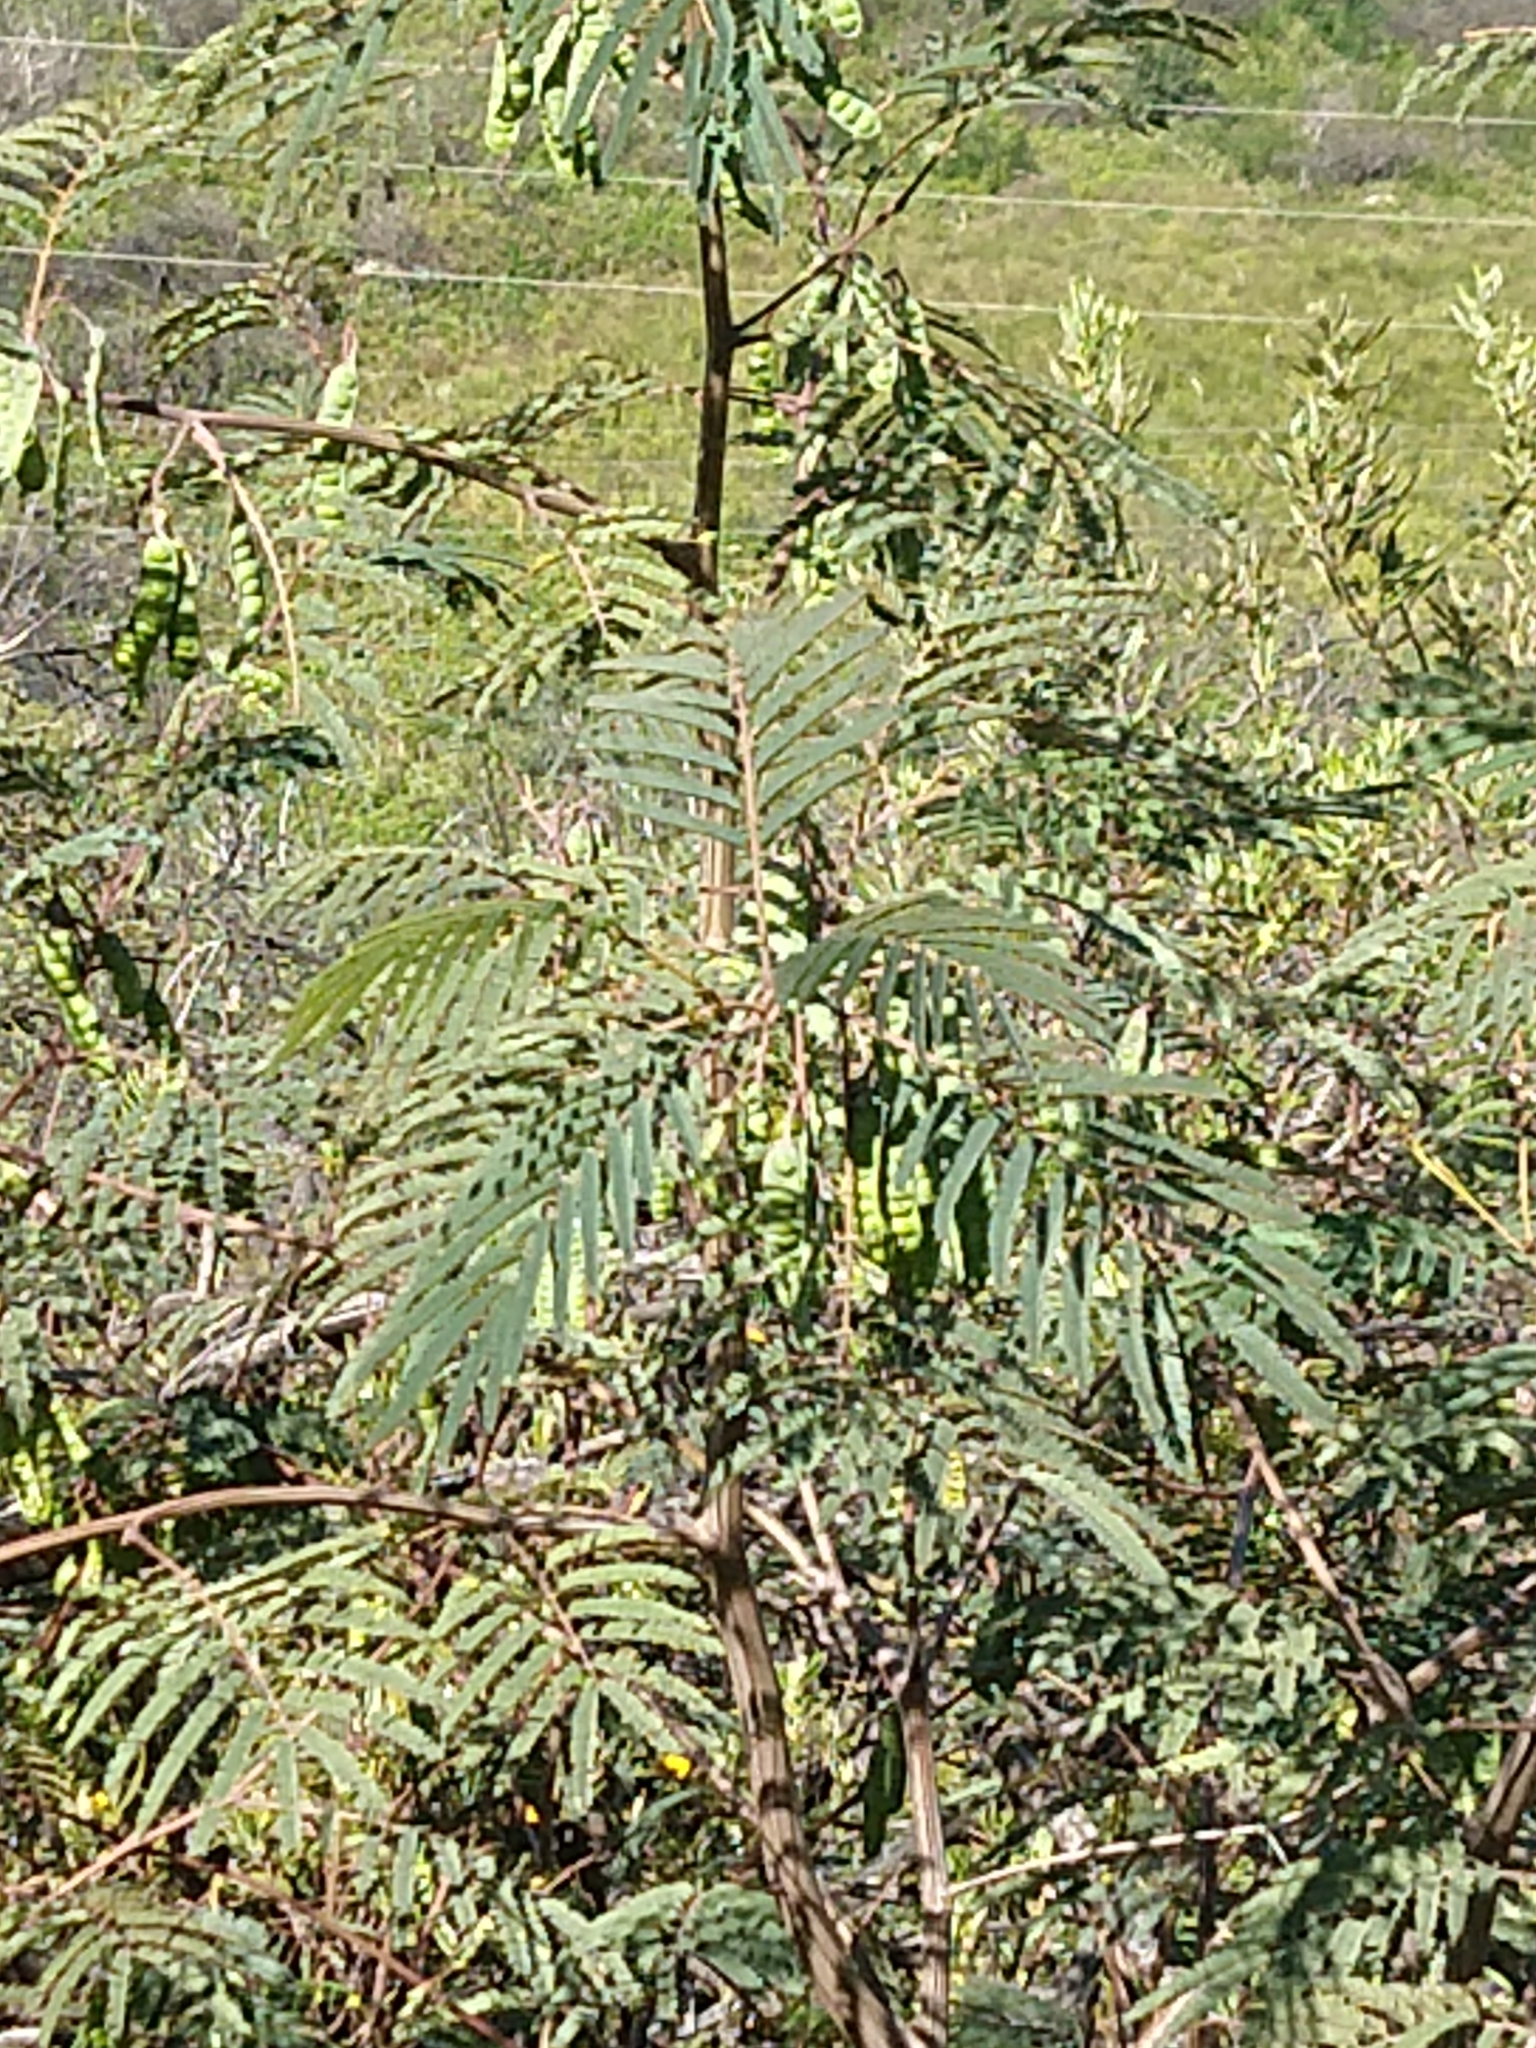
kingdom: Plantae
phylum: Tracheophyta
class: Magnoliopsida
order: Fabales
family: Fabaceae
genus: Paraserianthes
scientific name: Paraserianthes lophantha
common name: Plume albizia
